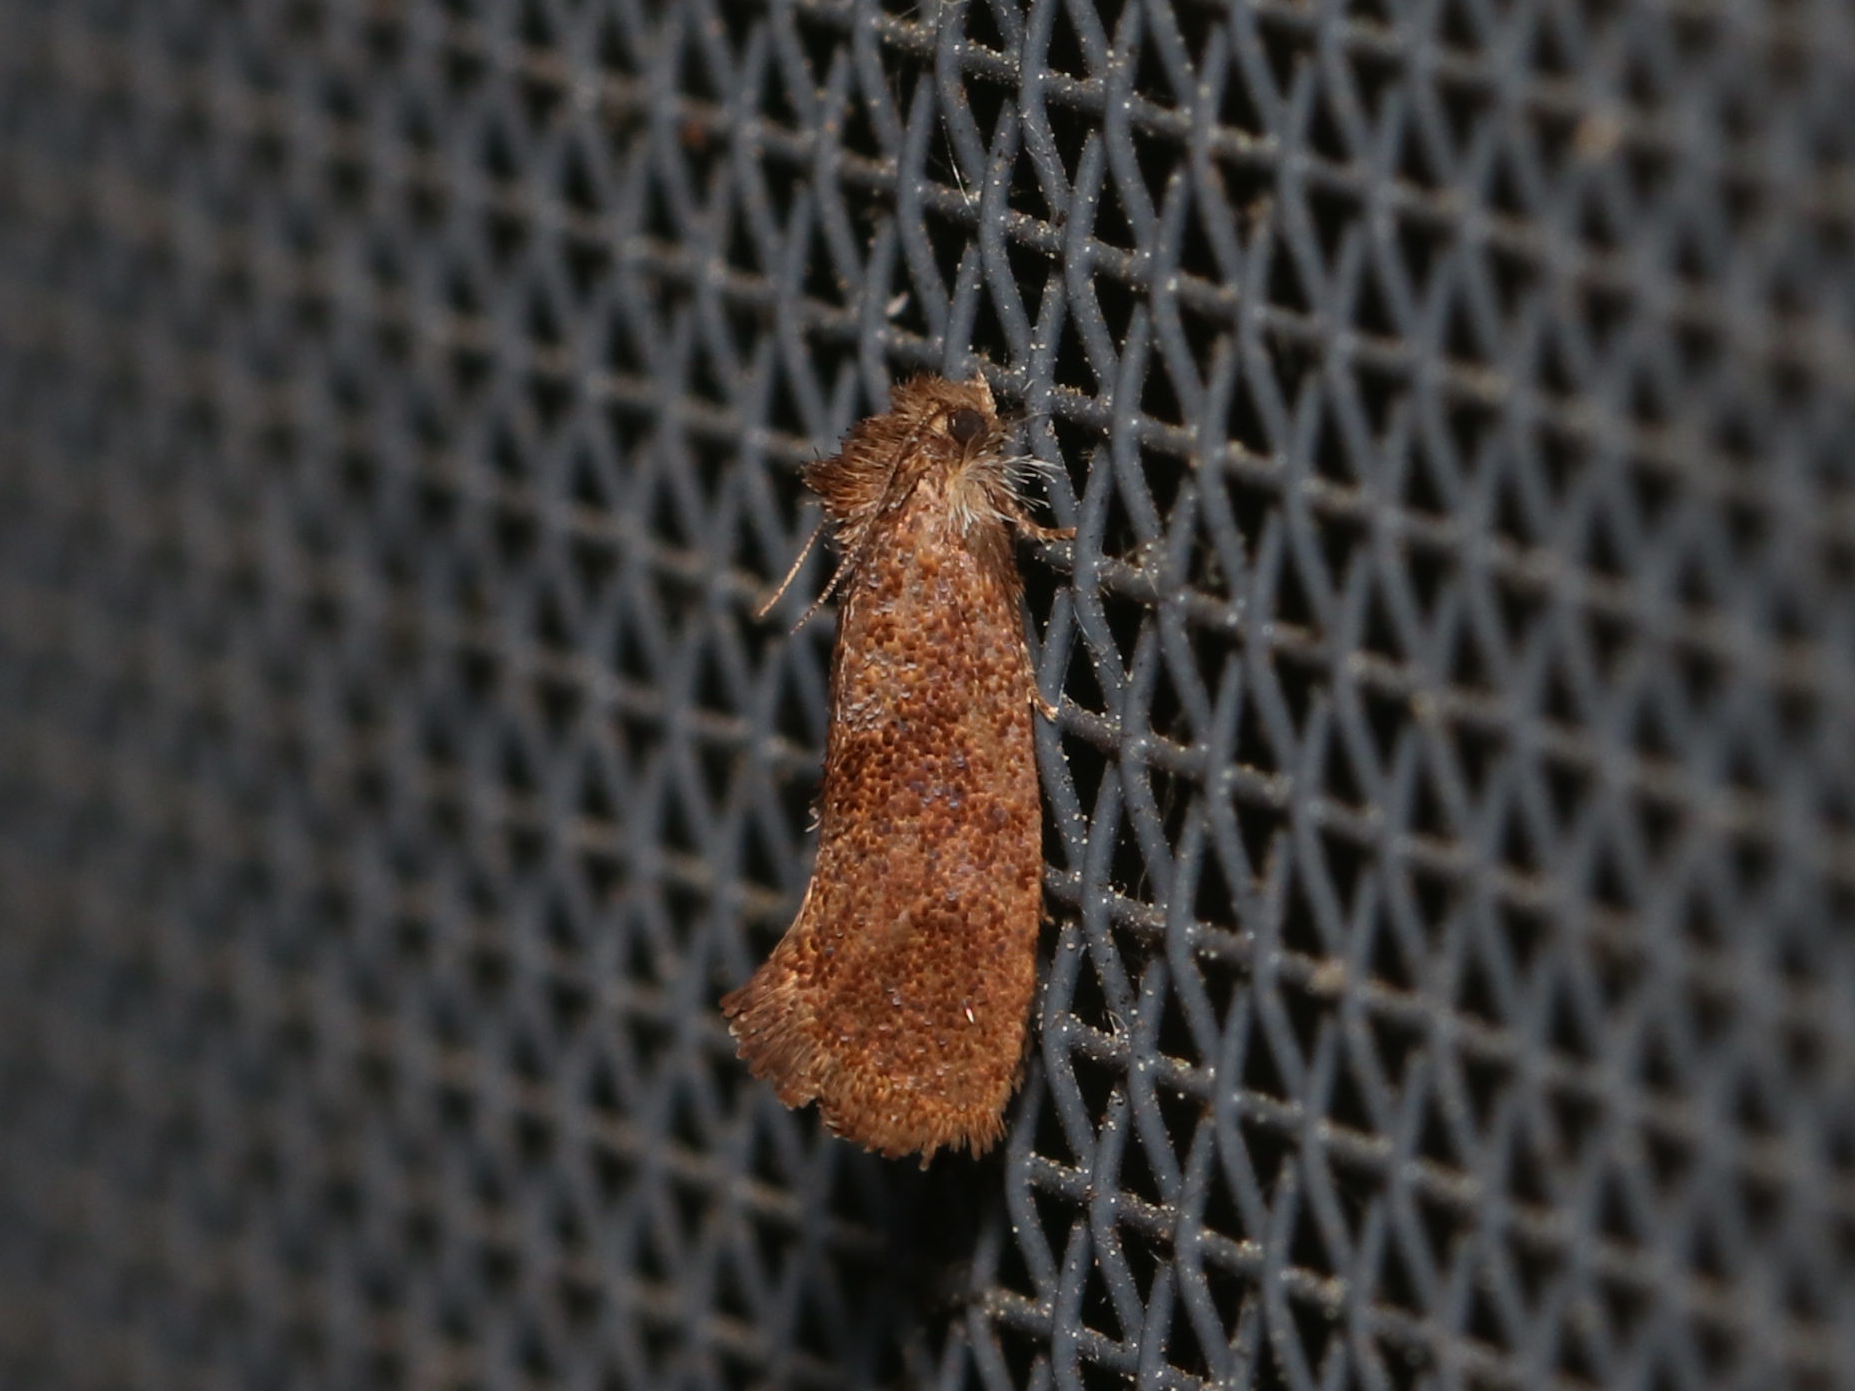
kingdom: Animalia
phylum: Arthropoda
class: Insecta
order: Lepidoptera
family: Tineidae
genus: Acrolophus
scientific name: Acrolophus panamae
